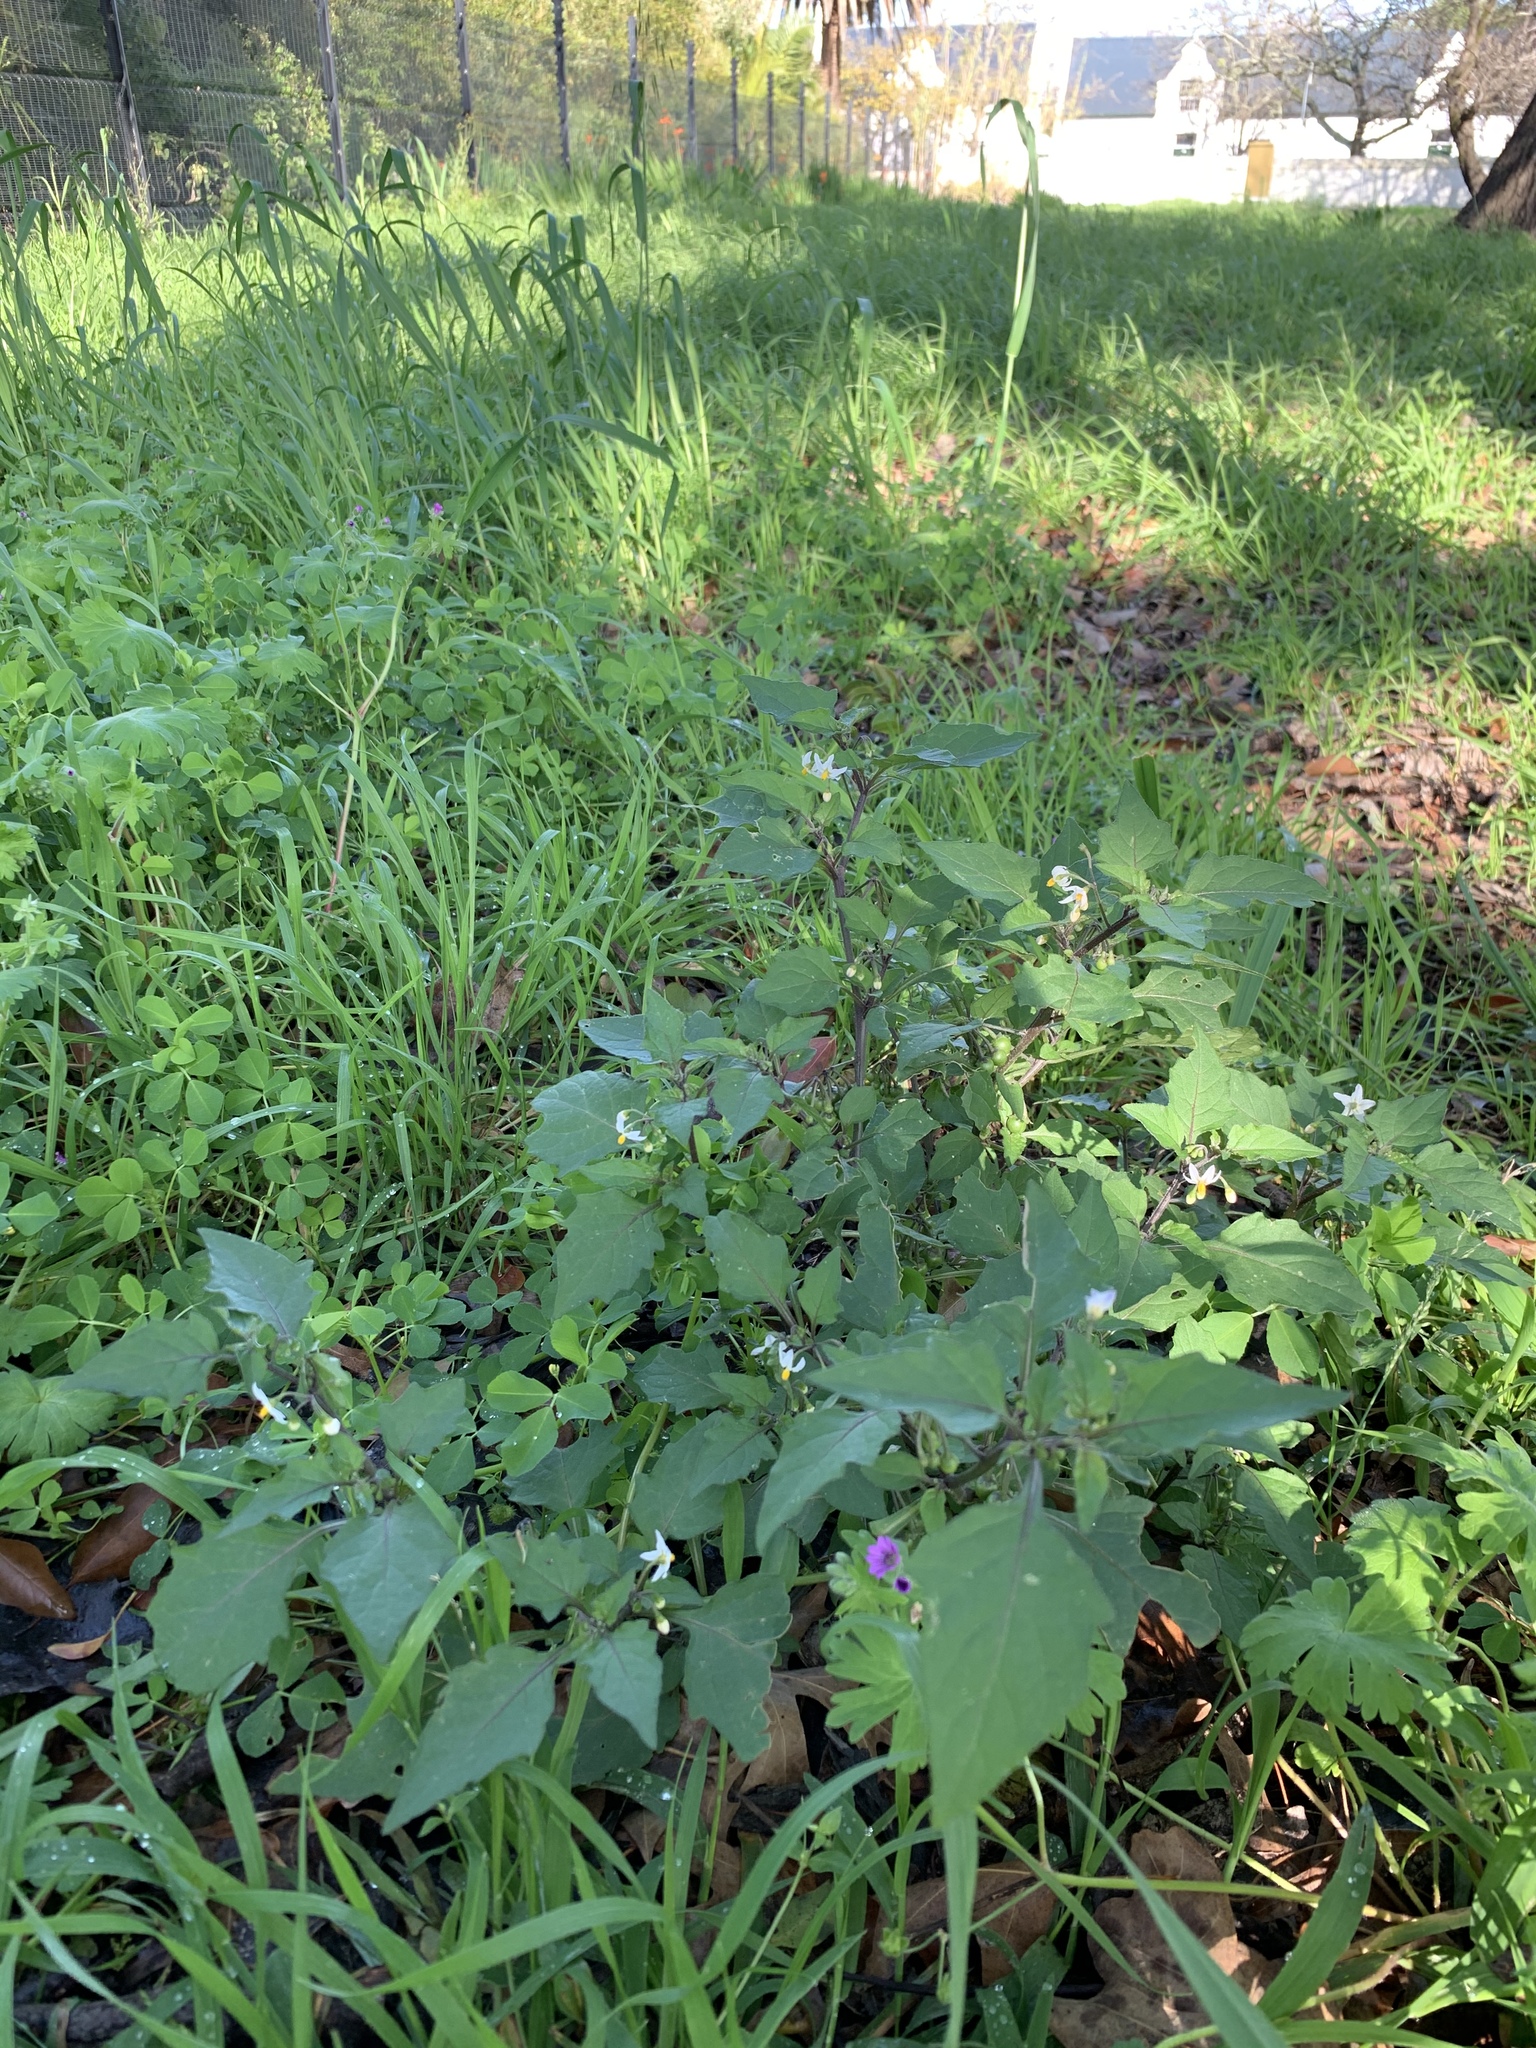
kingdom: Plantae
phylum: Tracheophyta
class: Magnoliopsida
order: Solanales
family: Solanaceae
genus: Solanum
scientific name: Solanum nigrum
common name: Black nightshade
